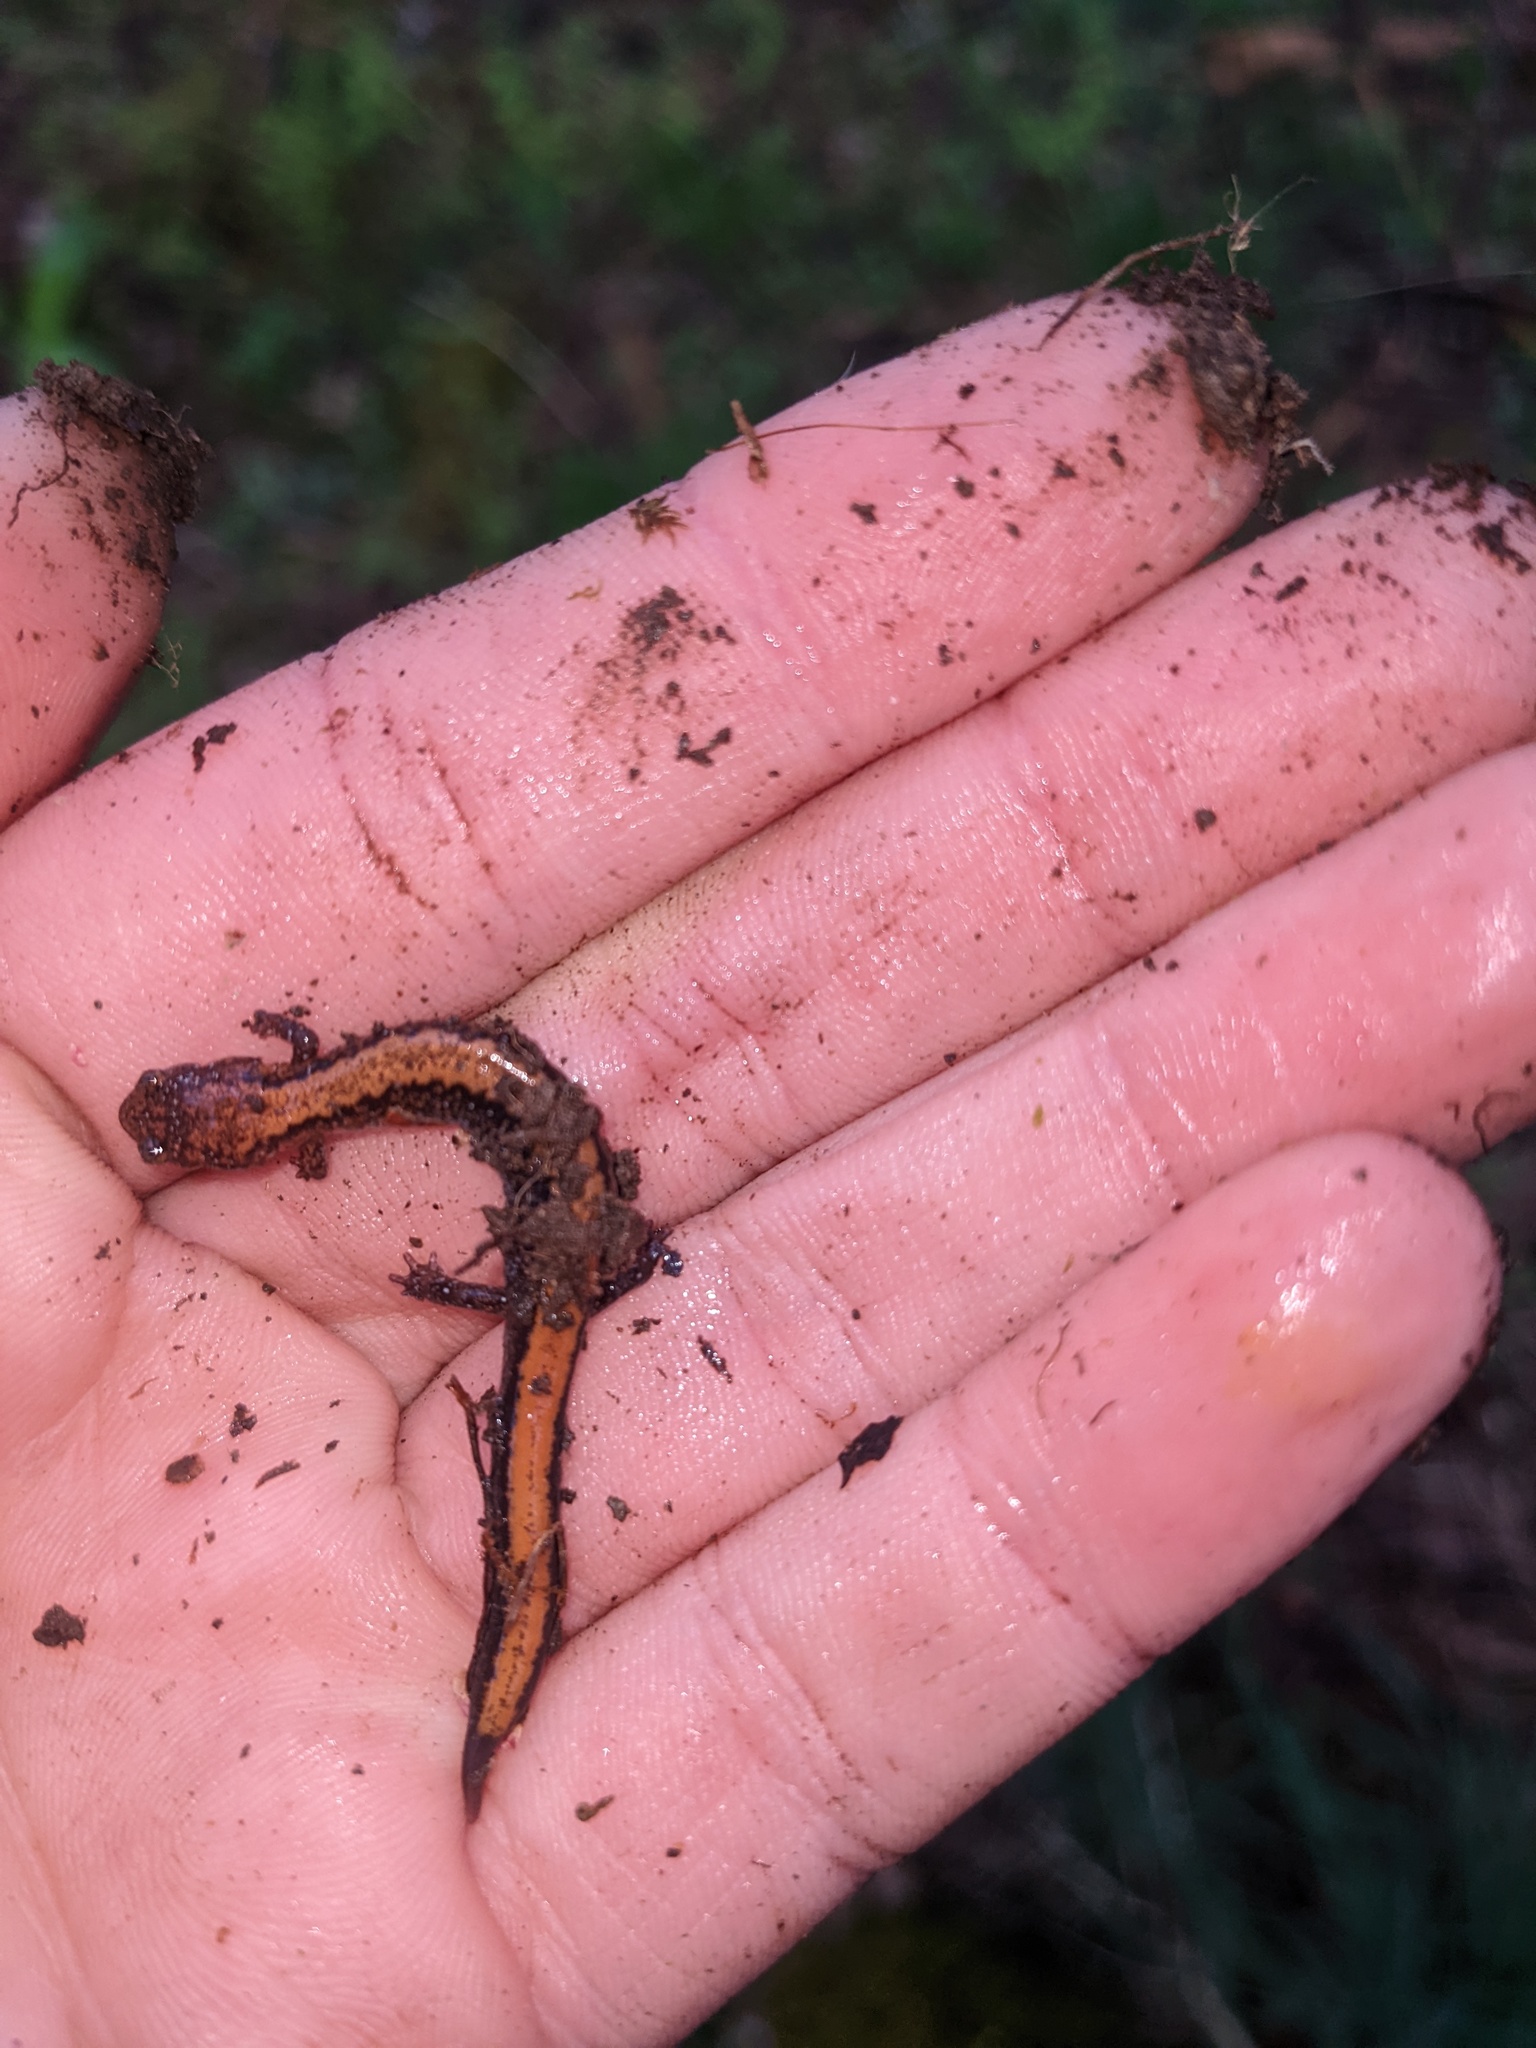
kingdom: Animalia
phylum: Chordata
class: Amphibia
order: Caudata
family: Plethodontidae
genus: Plethodon
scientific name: Plethodon cinereus
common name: Redback salamander
